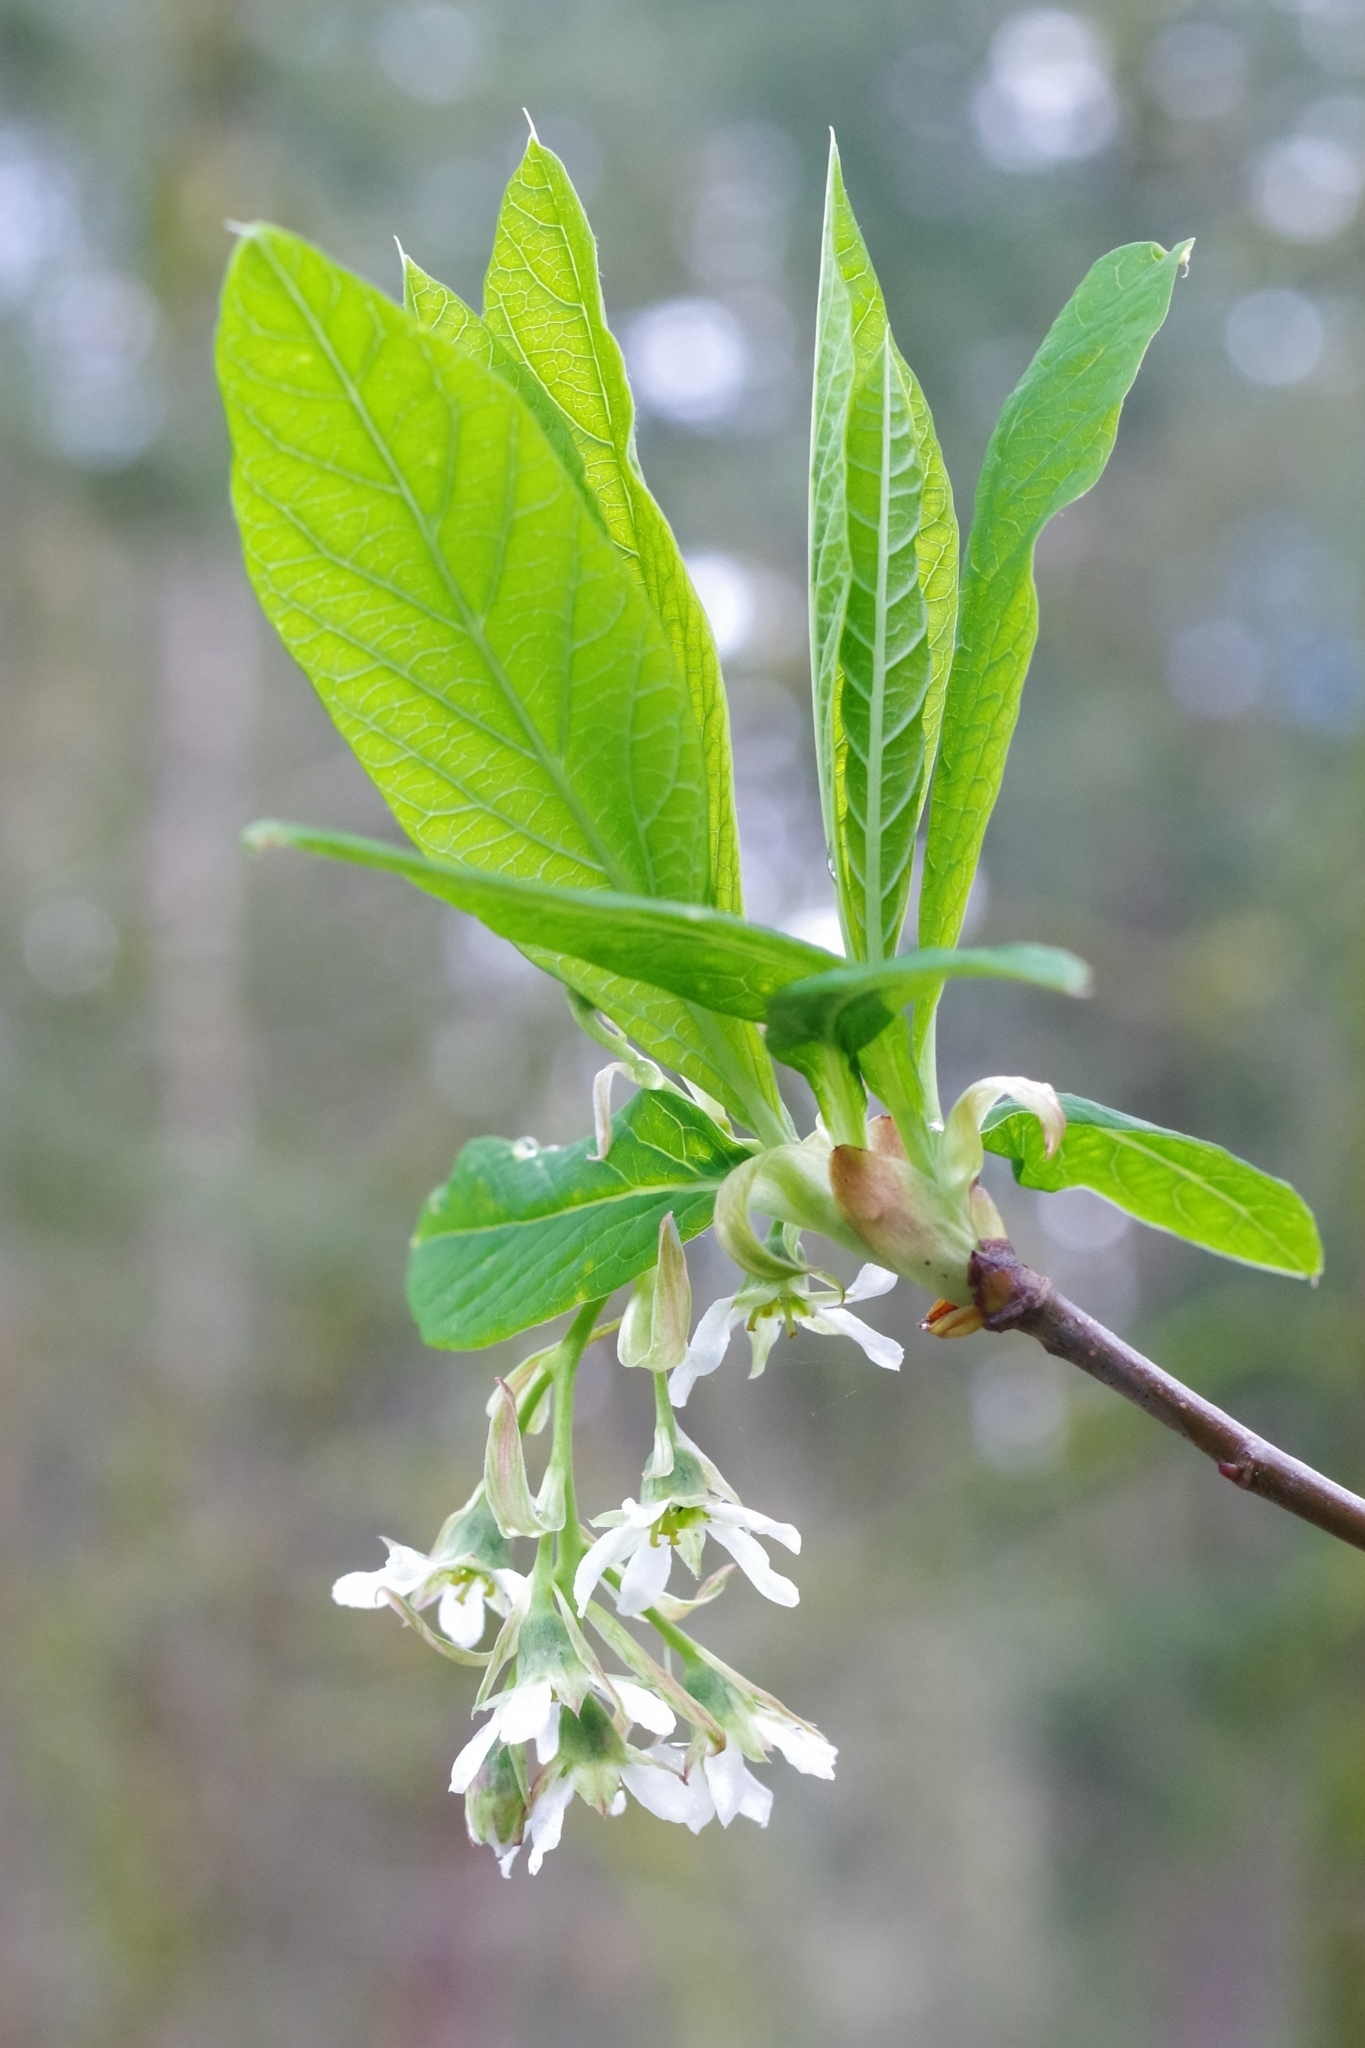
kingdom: Plantae
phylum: Tracheophyta
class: Magnoliopsida
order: Rosales
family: Rosaceae
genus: Oemleria
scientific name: Oemleria cerasiformis
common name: Osoberry
